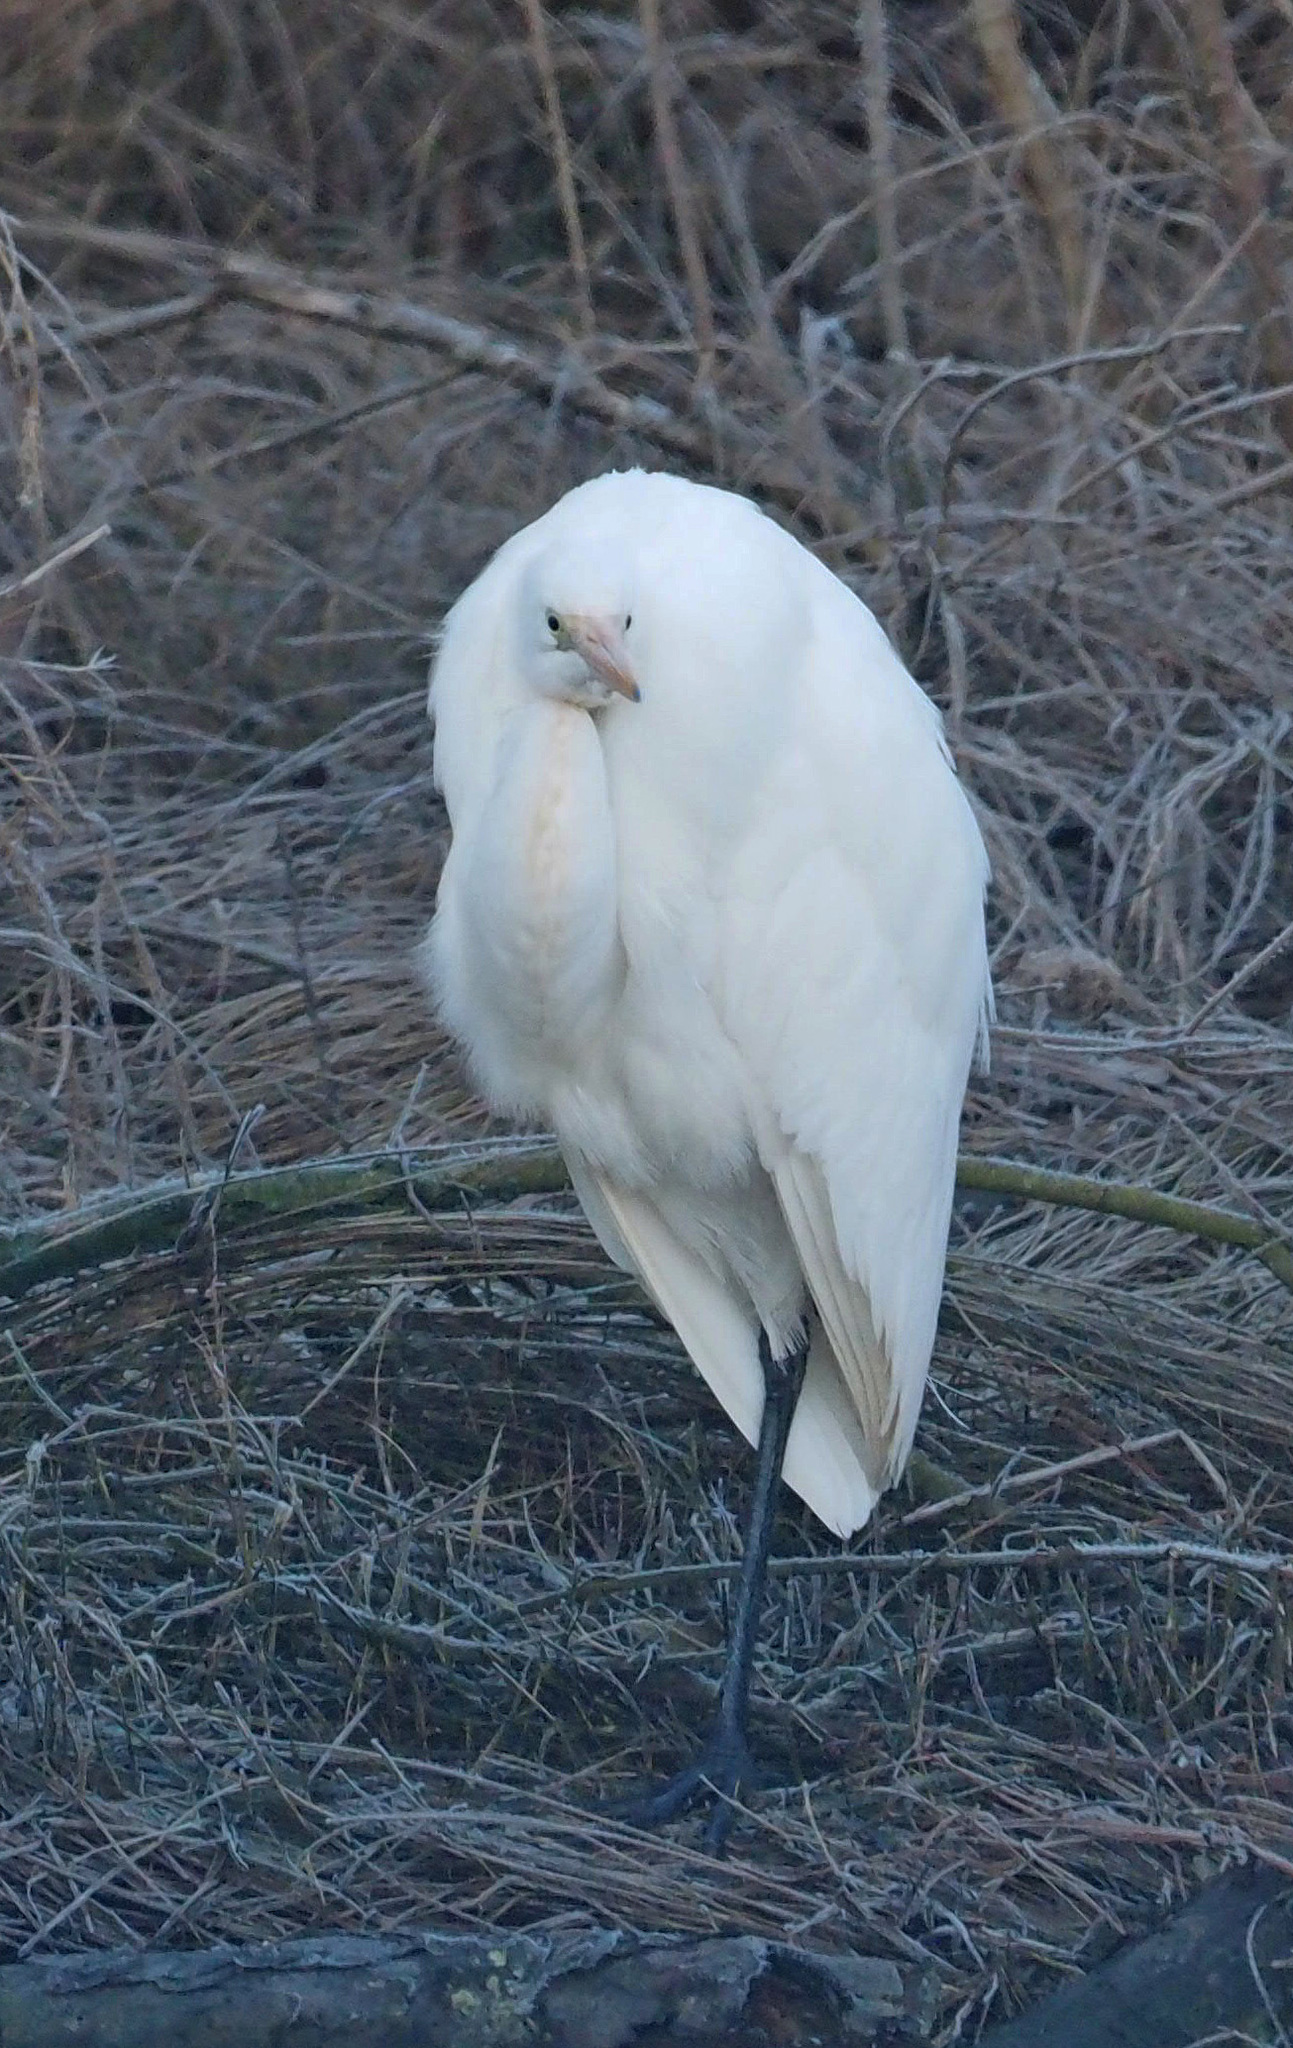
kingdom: Animalia
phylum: Chordata
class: Aves
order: Pelecaniformes
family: Ardeidae
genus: Ardea
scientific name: Ardea alba
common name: Great egret
